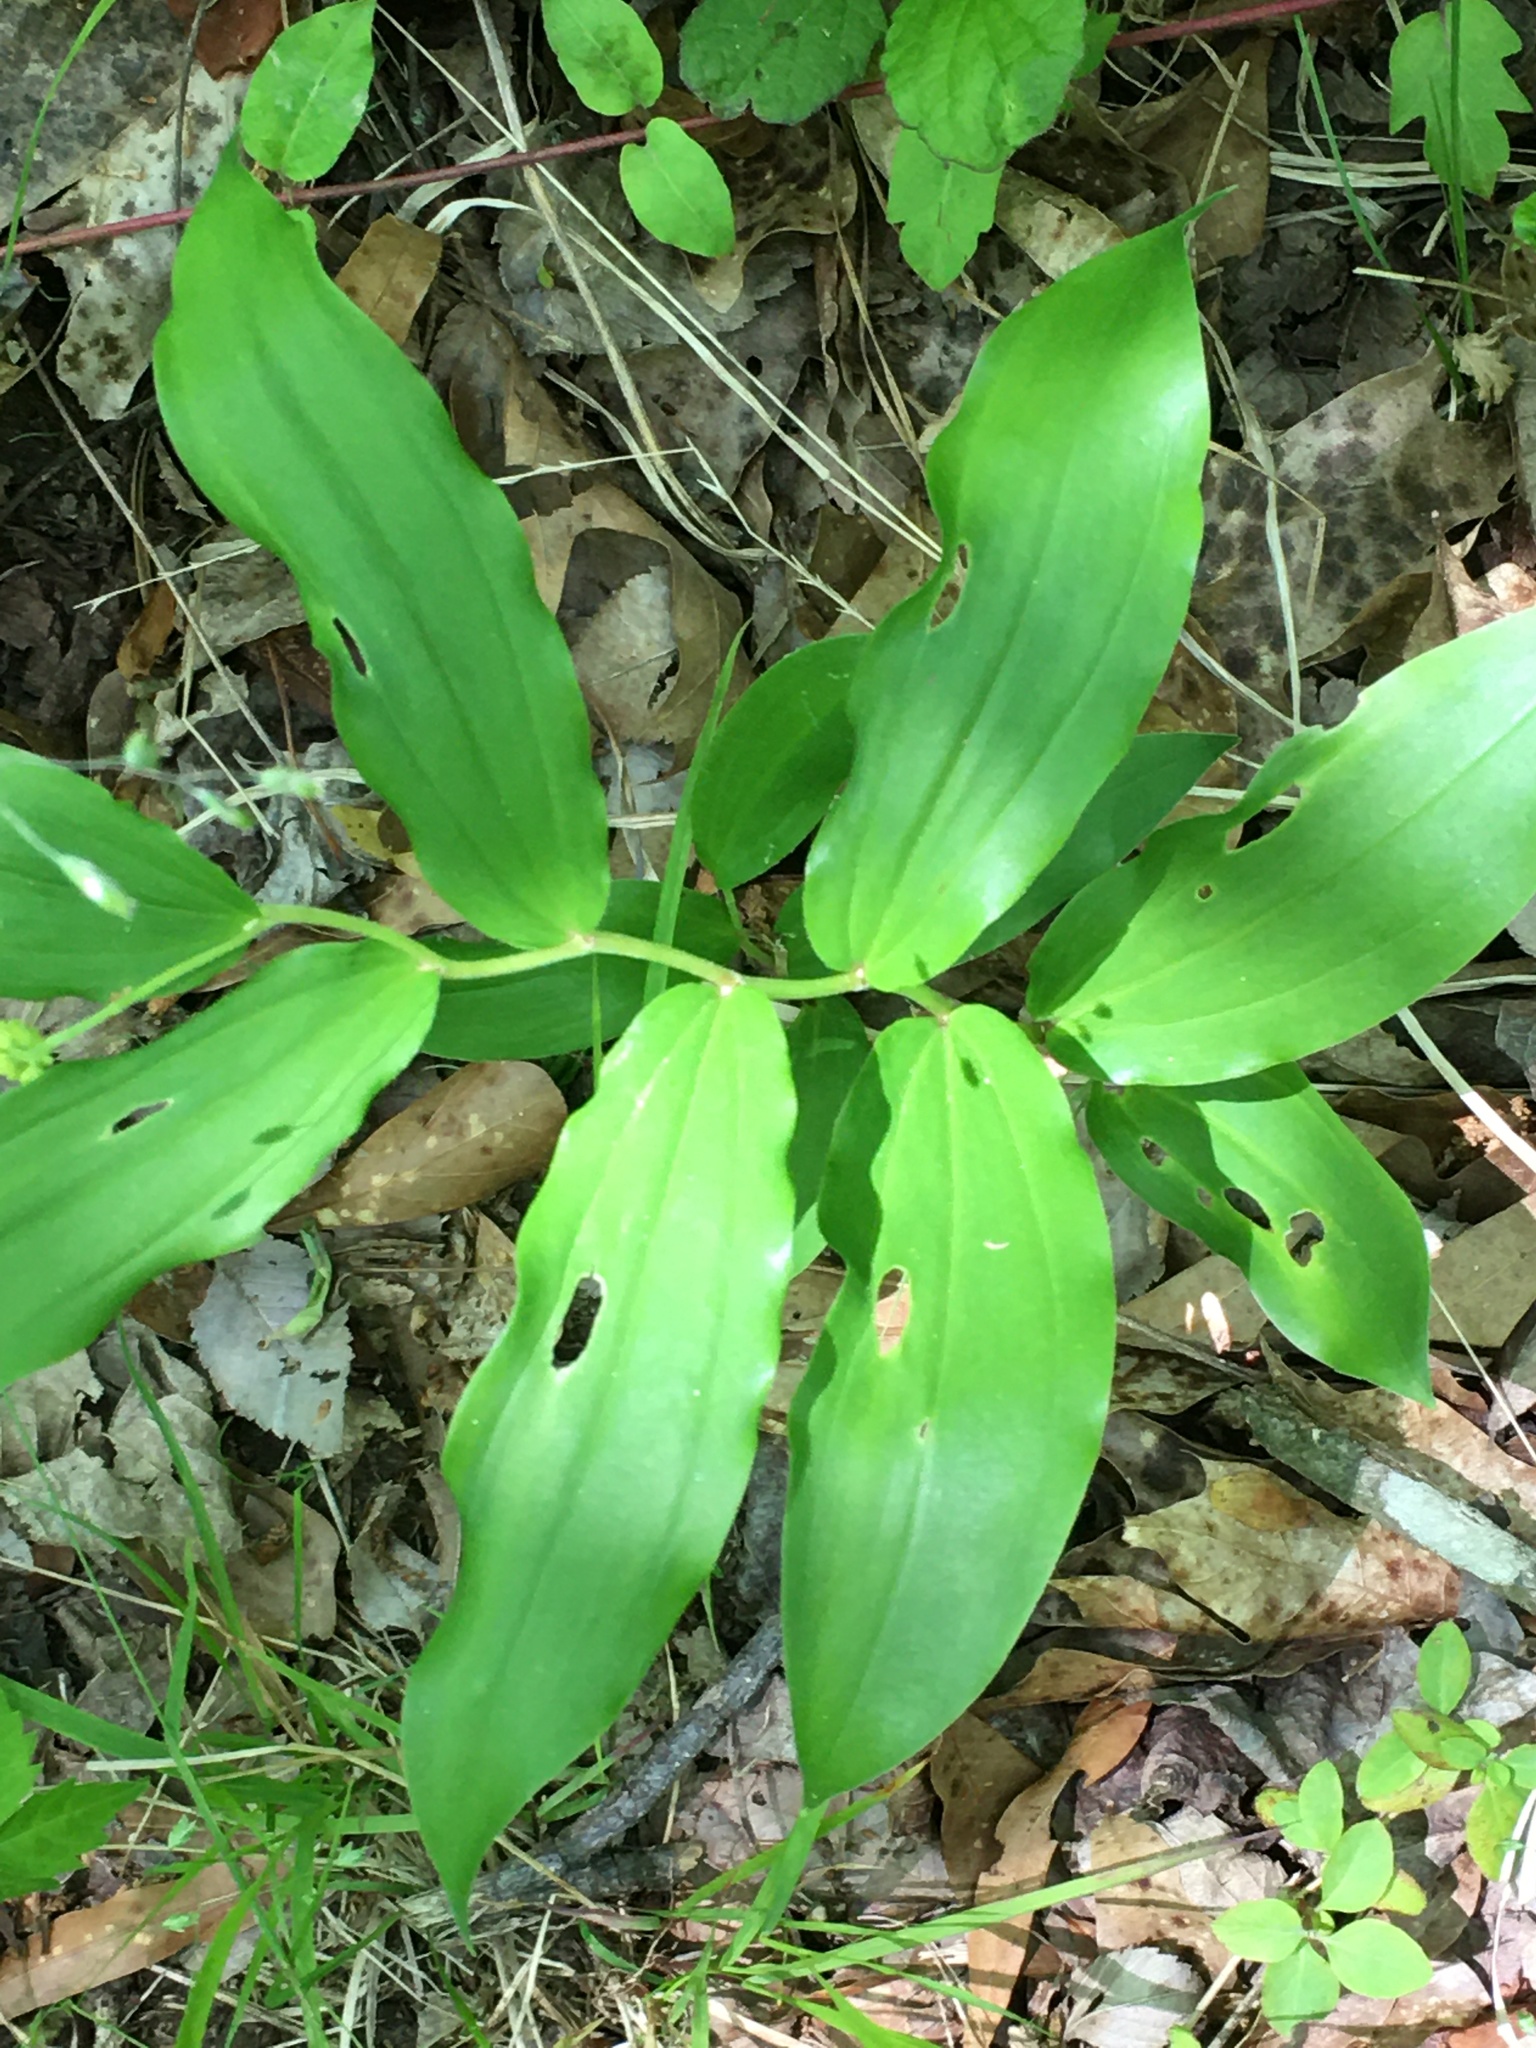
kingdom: Plantae
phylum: Tracheophyta
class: Liliopsida
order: Asparagales
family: Asparagaceae
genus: Maianthemum
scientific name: Maianthemum racemosum
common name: False spikenard
